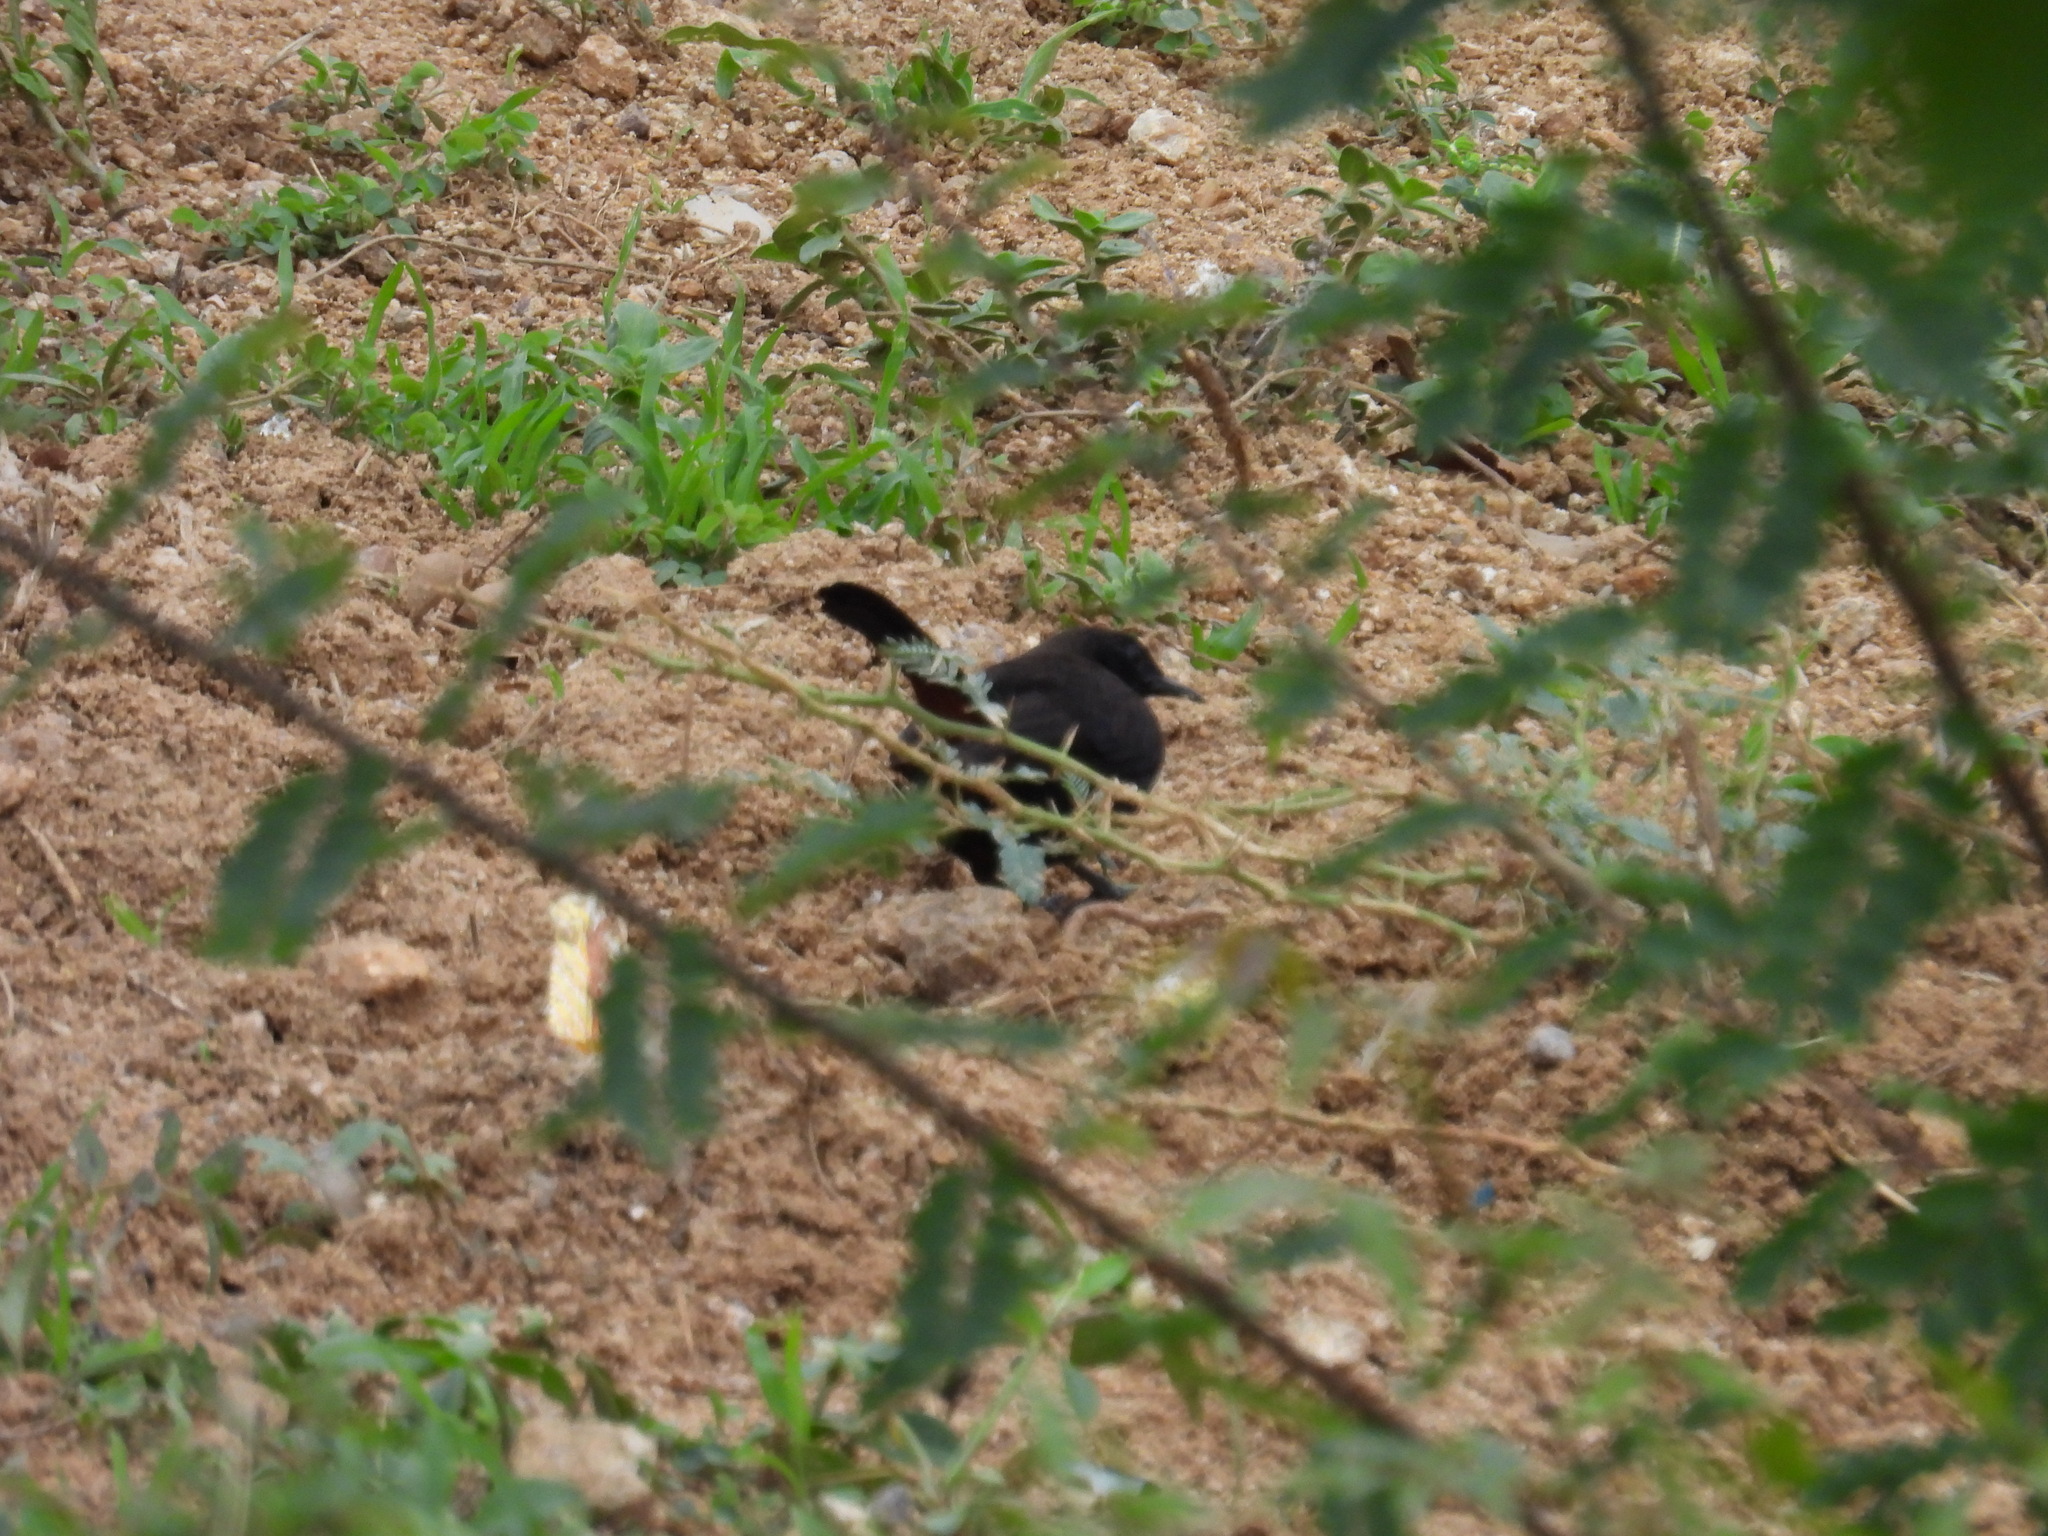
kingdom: Animalia
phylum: Chordata
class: Aves
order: Passeriformes
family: Muscicapidae
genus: Saxicoloides
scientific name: Saxicoloides fulicatus
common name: Indian robin
